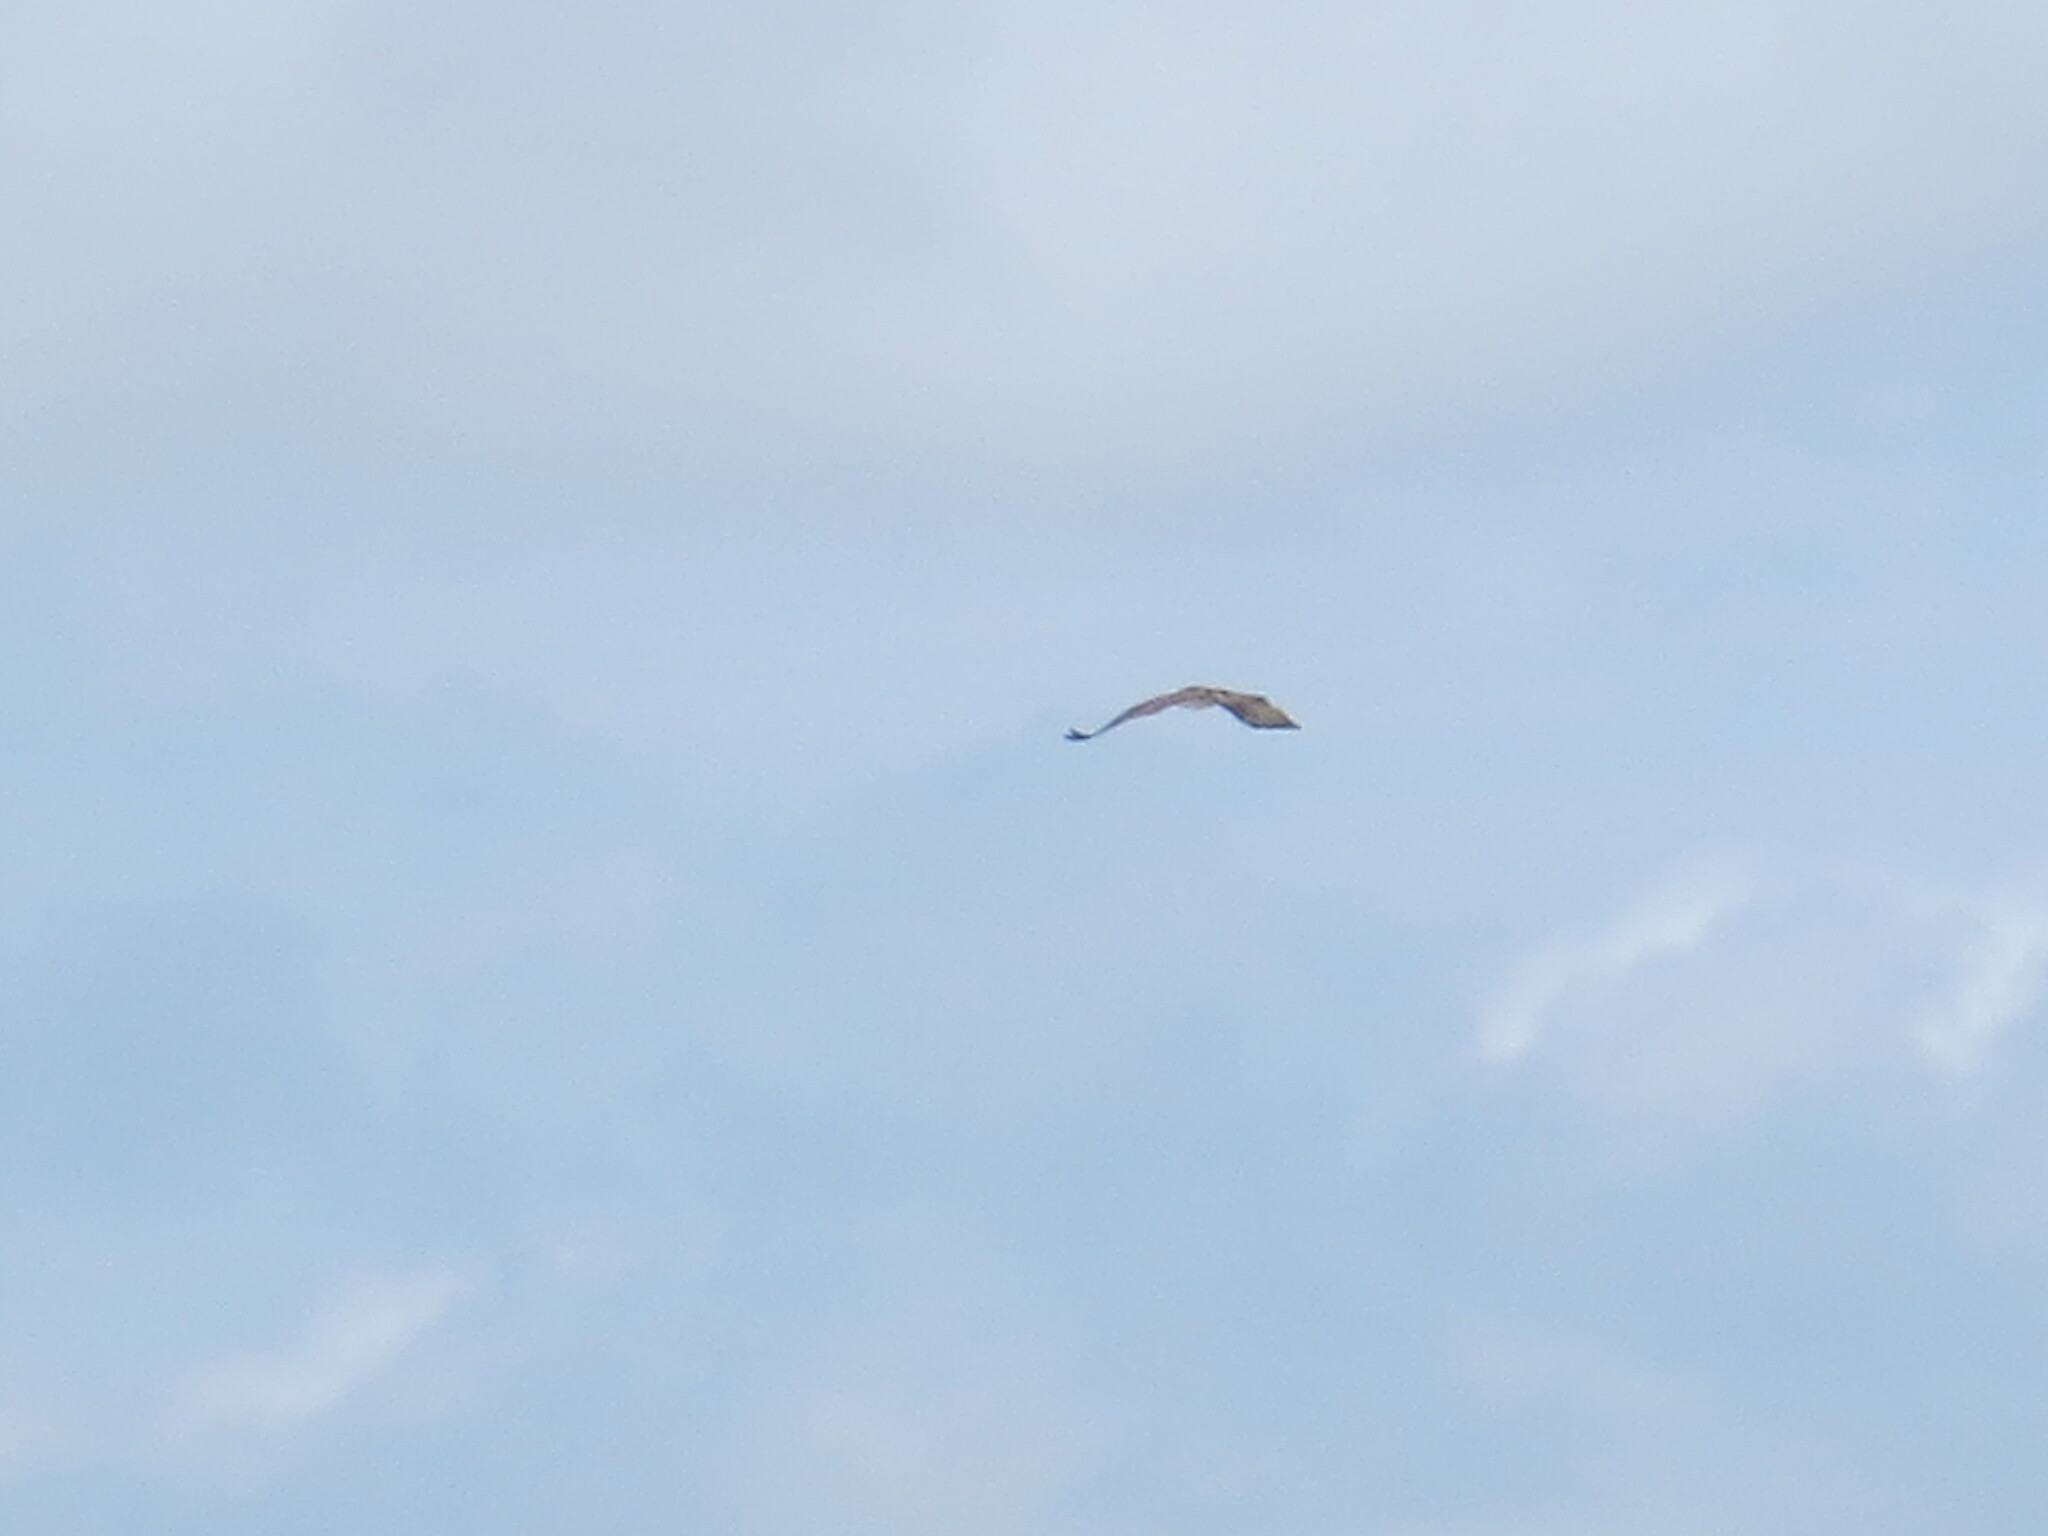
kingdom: Animalia
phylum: Chordata
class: Aves
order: Accipitriformes
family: Pandionidae
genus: Pandion
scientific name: Pandion haliaetus
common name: Osprey
